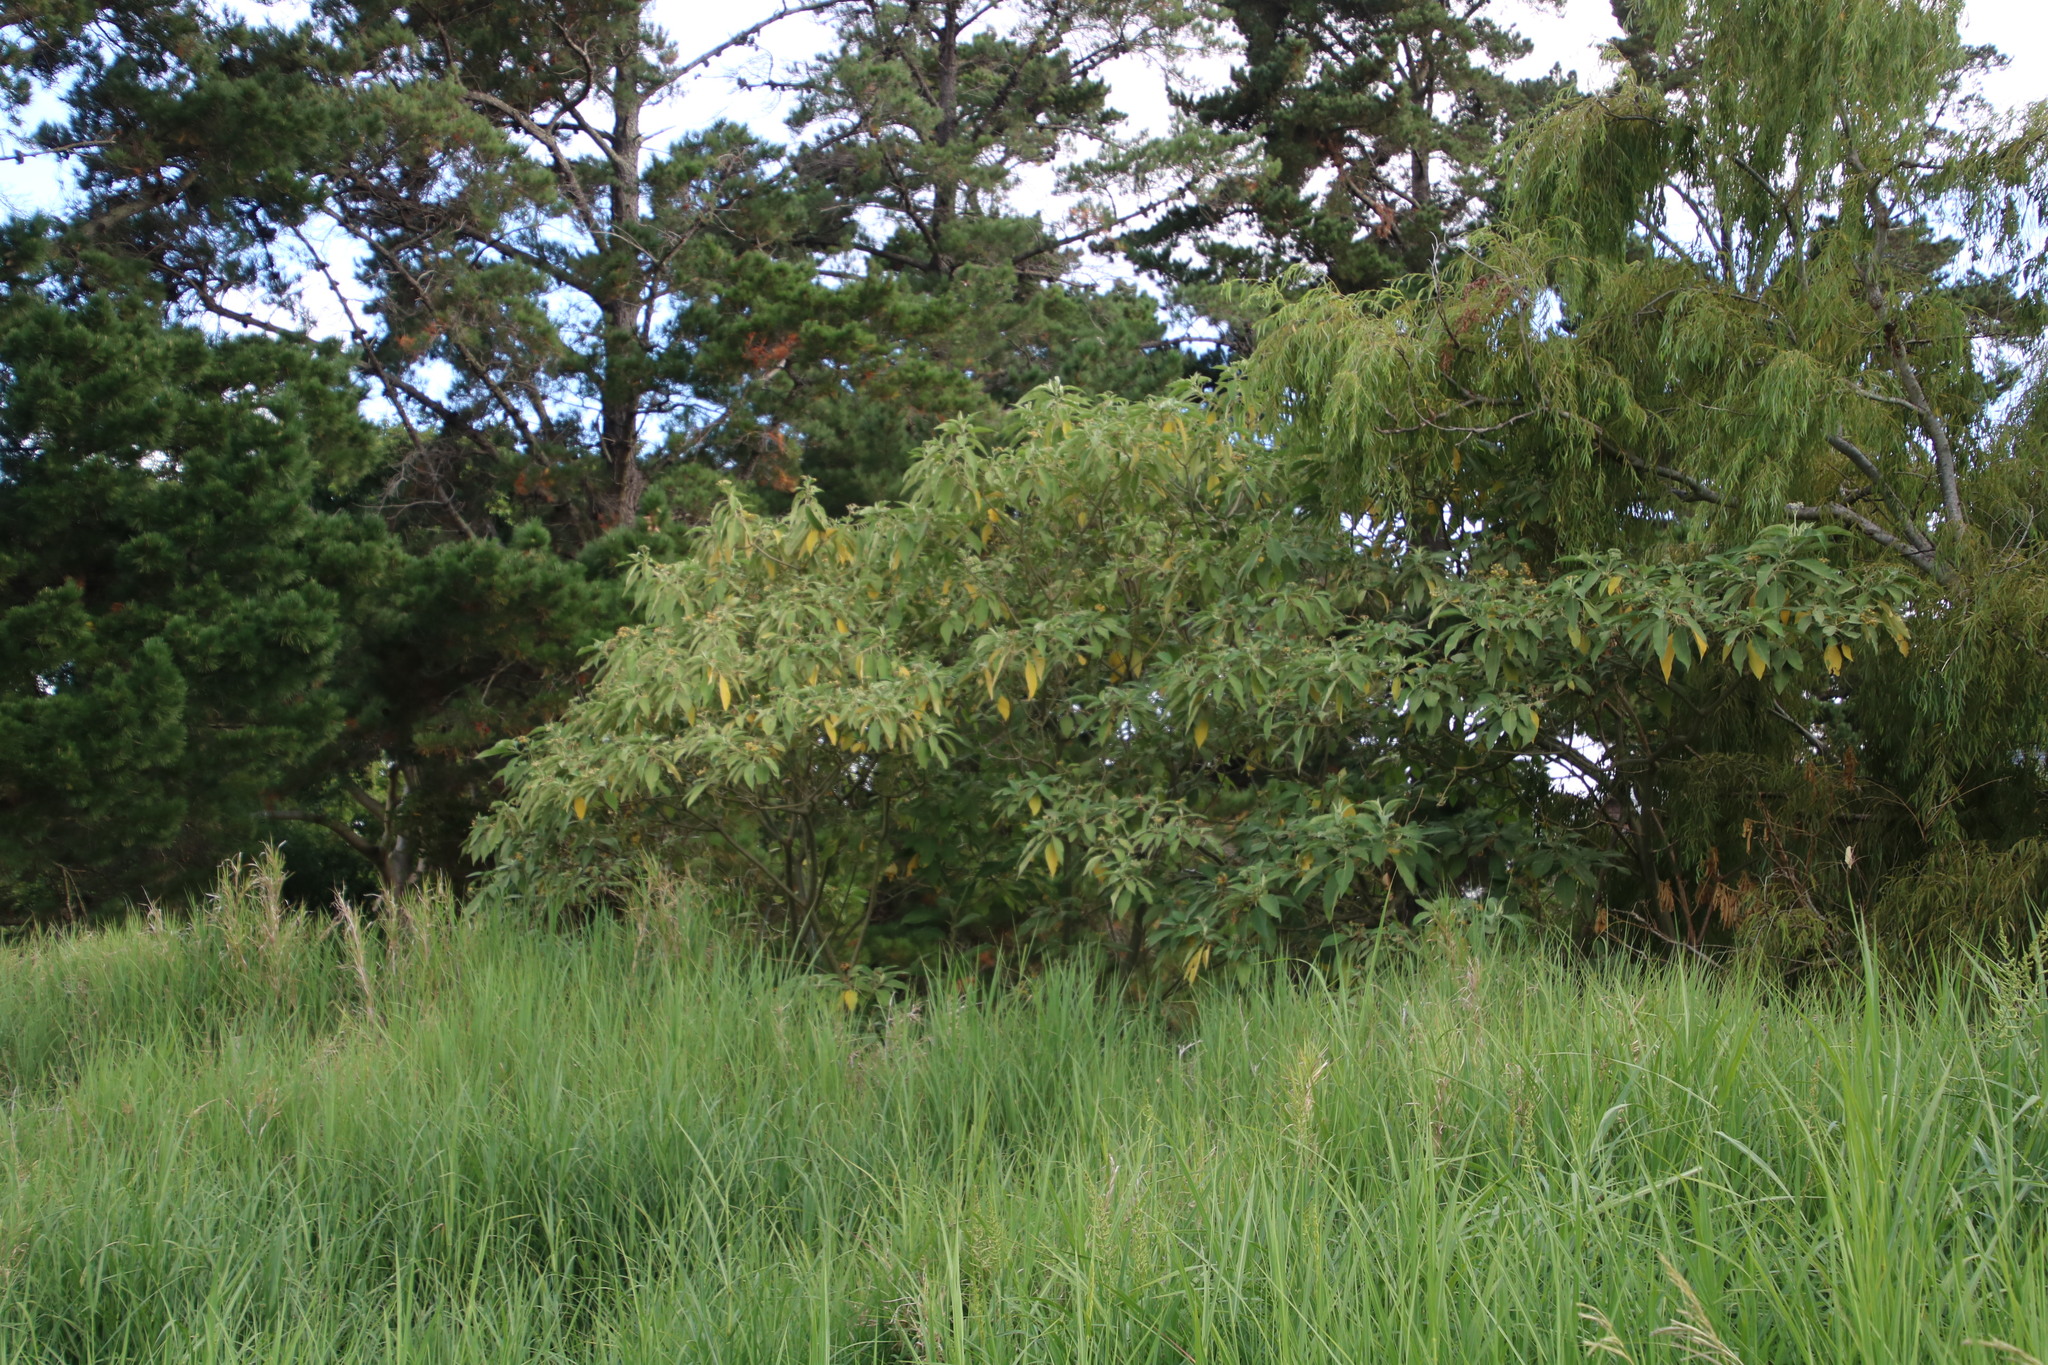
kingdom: Plantae
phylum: Tracheophyta
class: Magnoliopsida
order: Solanales
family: Solanaceae
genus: Solanum
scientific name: Solanum mauritianum
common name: Earleaf nightshade
